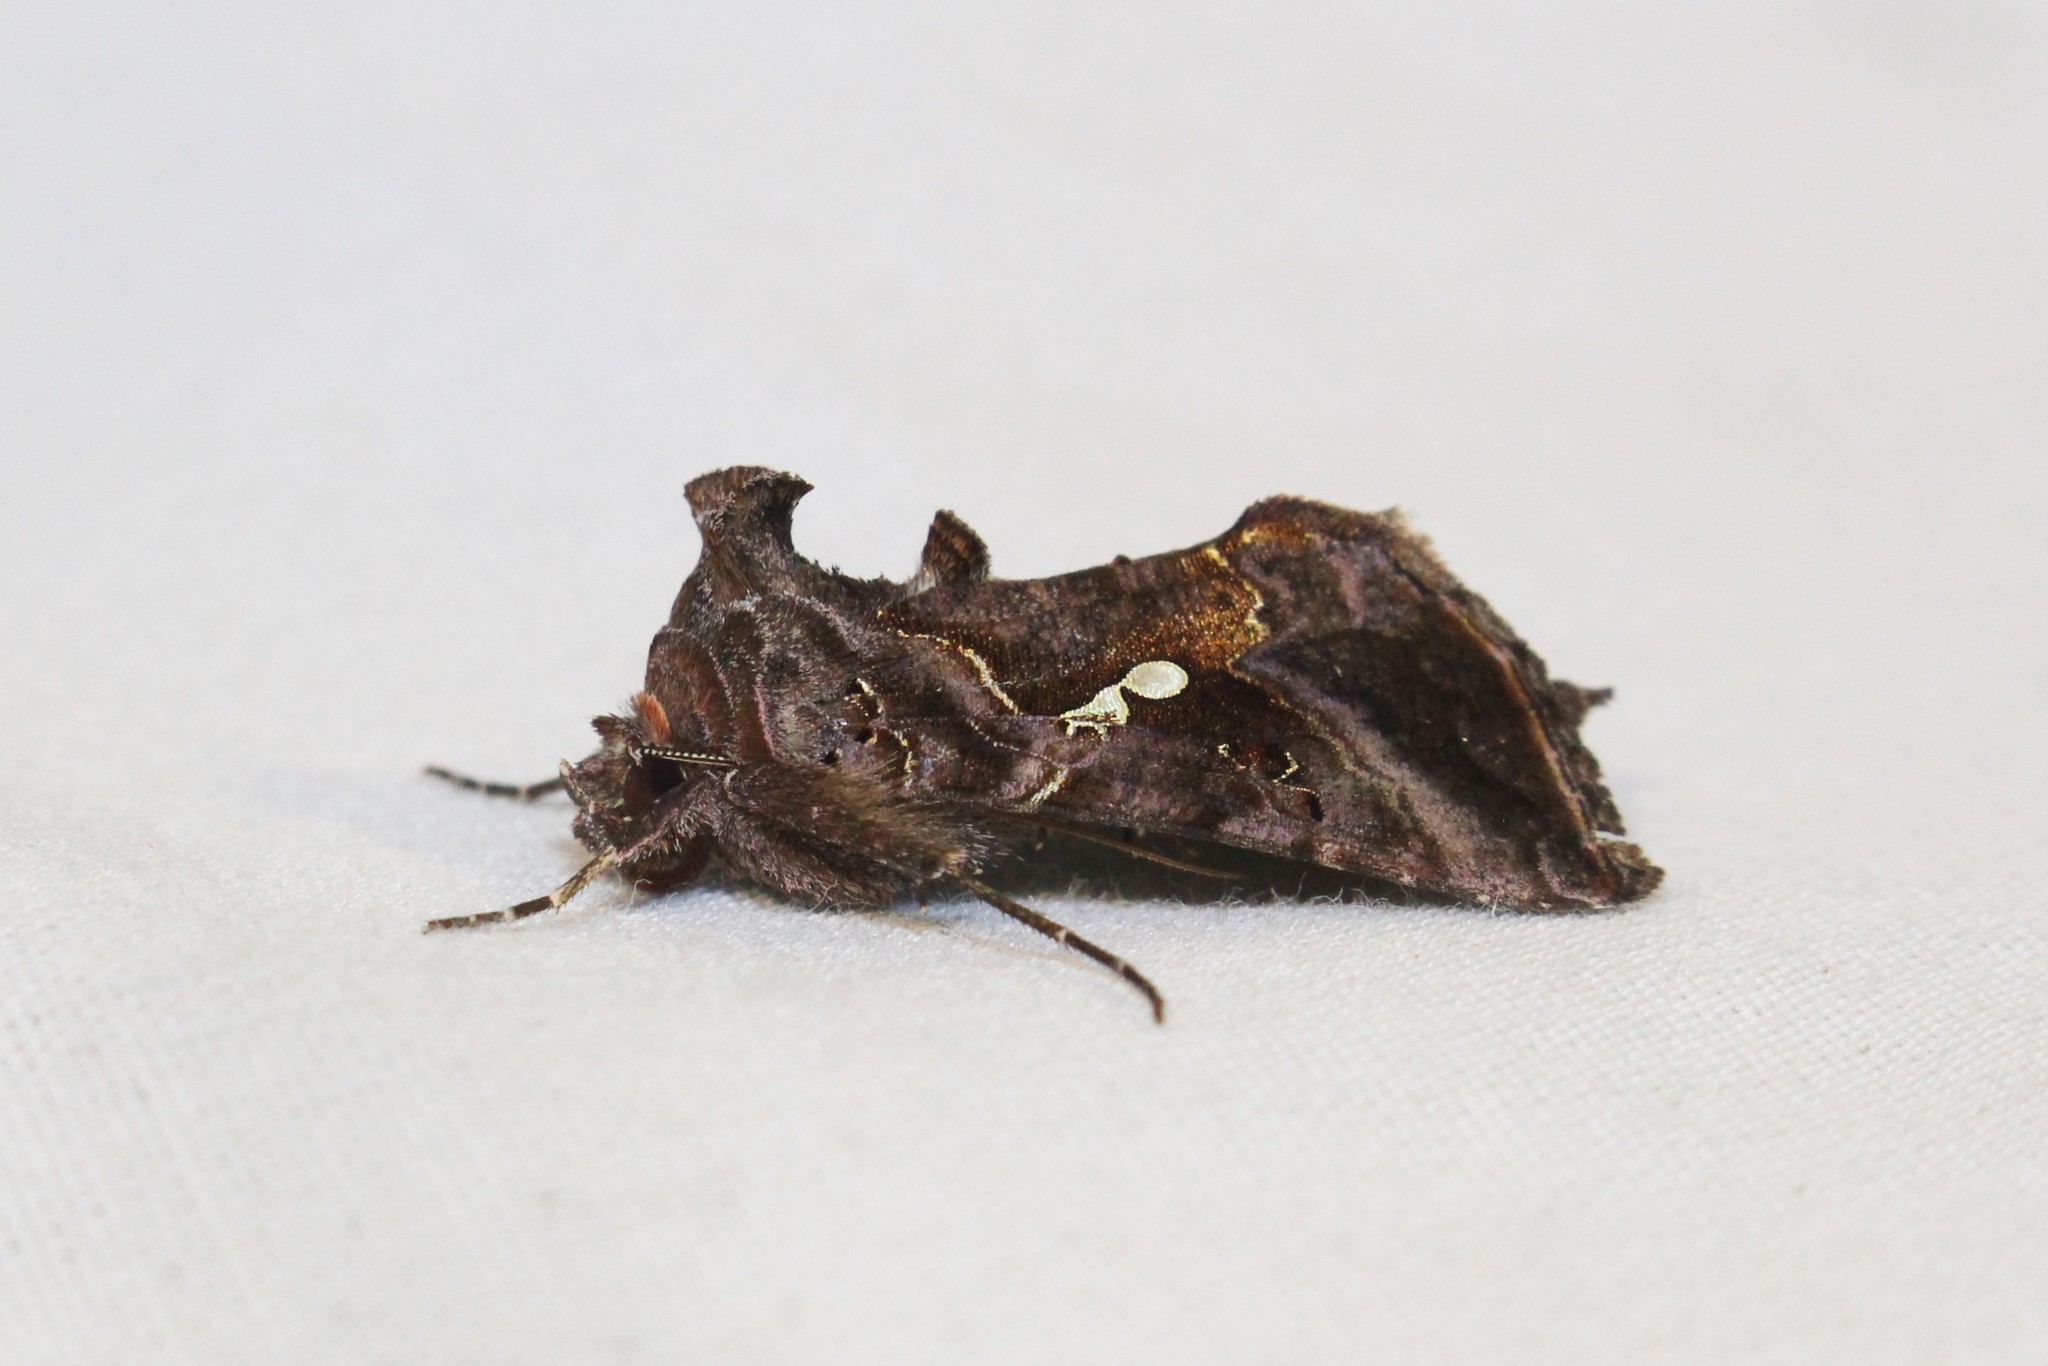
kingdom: Animalia
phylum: Arthropoda
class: Insecta
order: Lepidoptera
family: Noctuidae
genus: Autographa
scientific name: Autographa precationis
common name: Common looper moth
